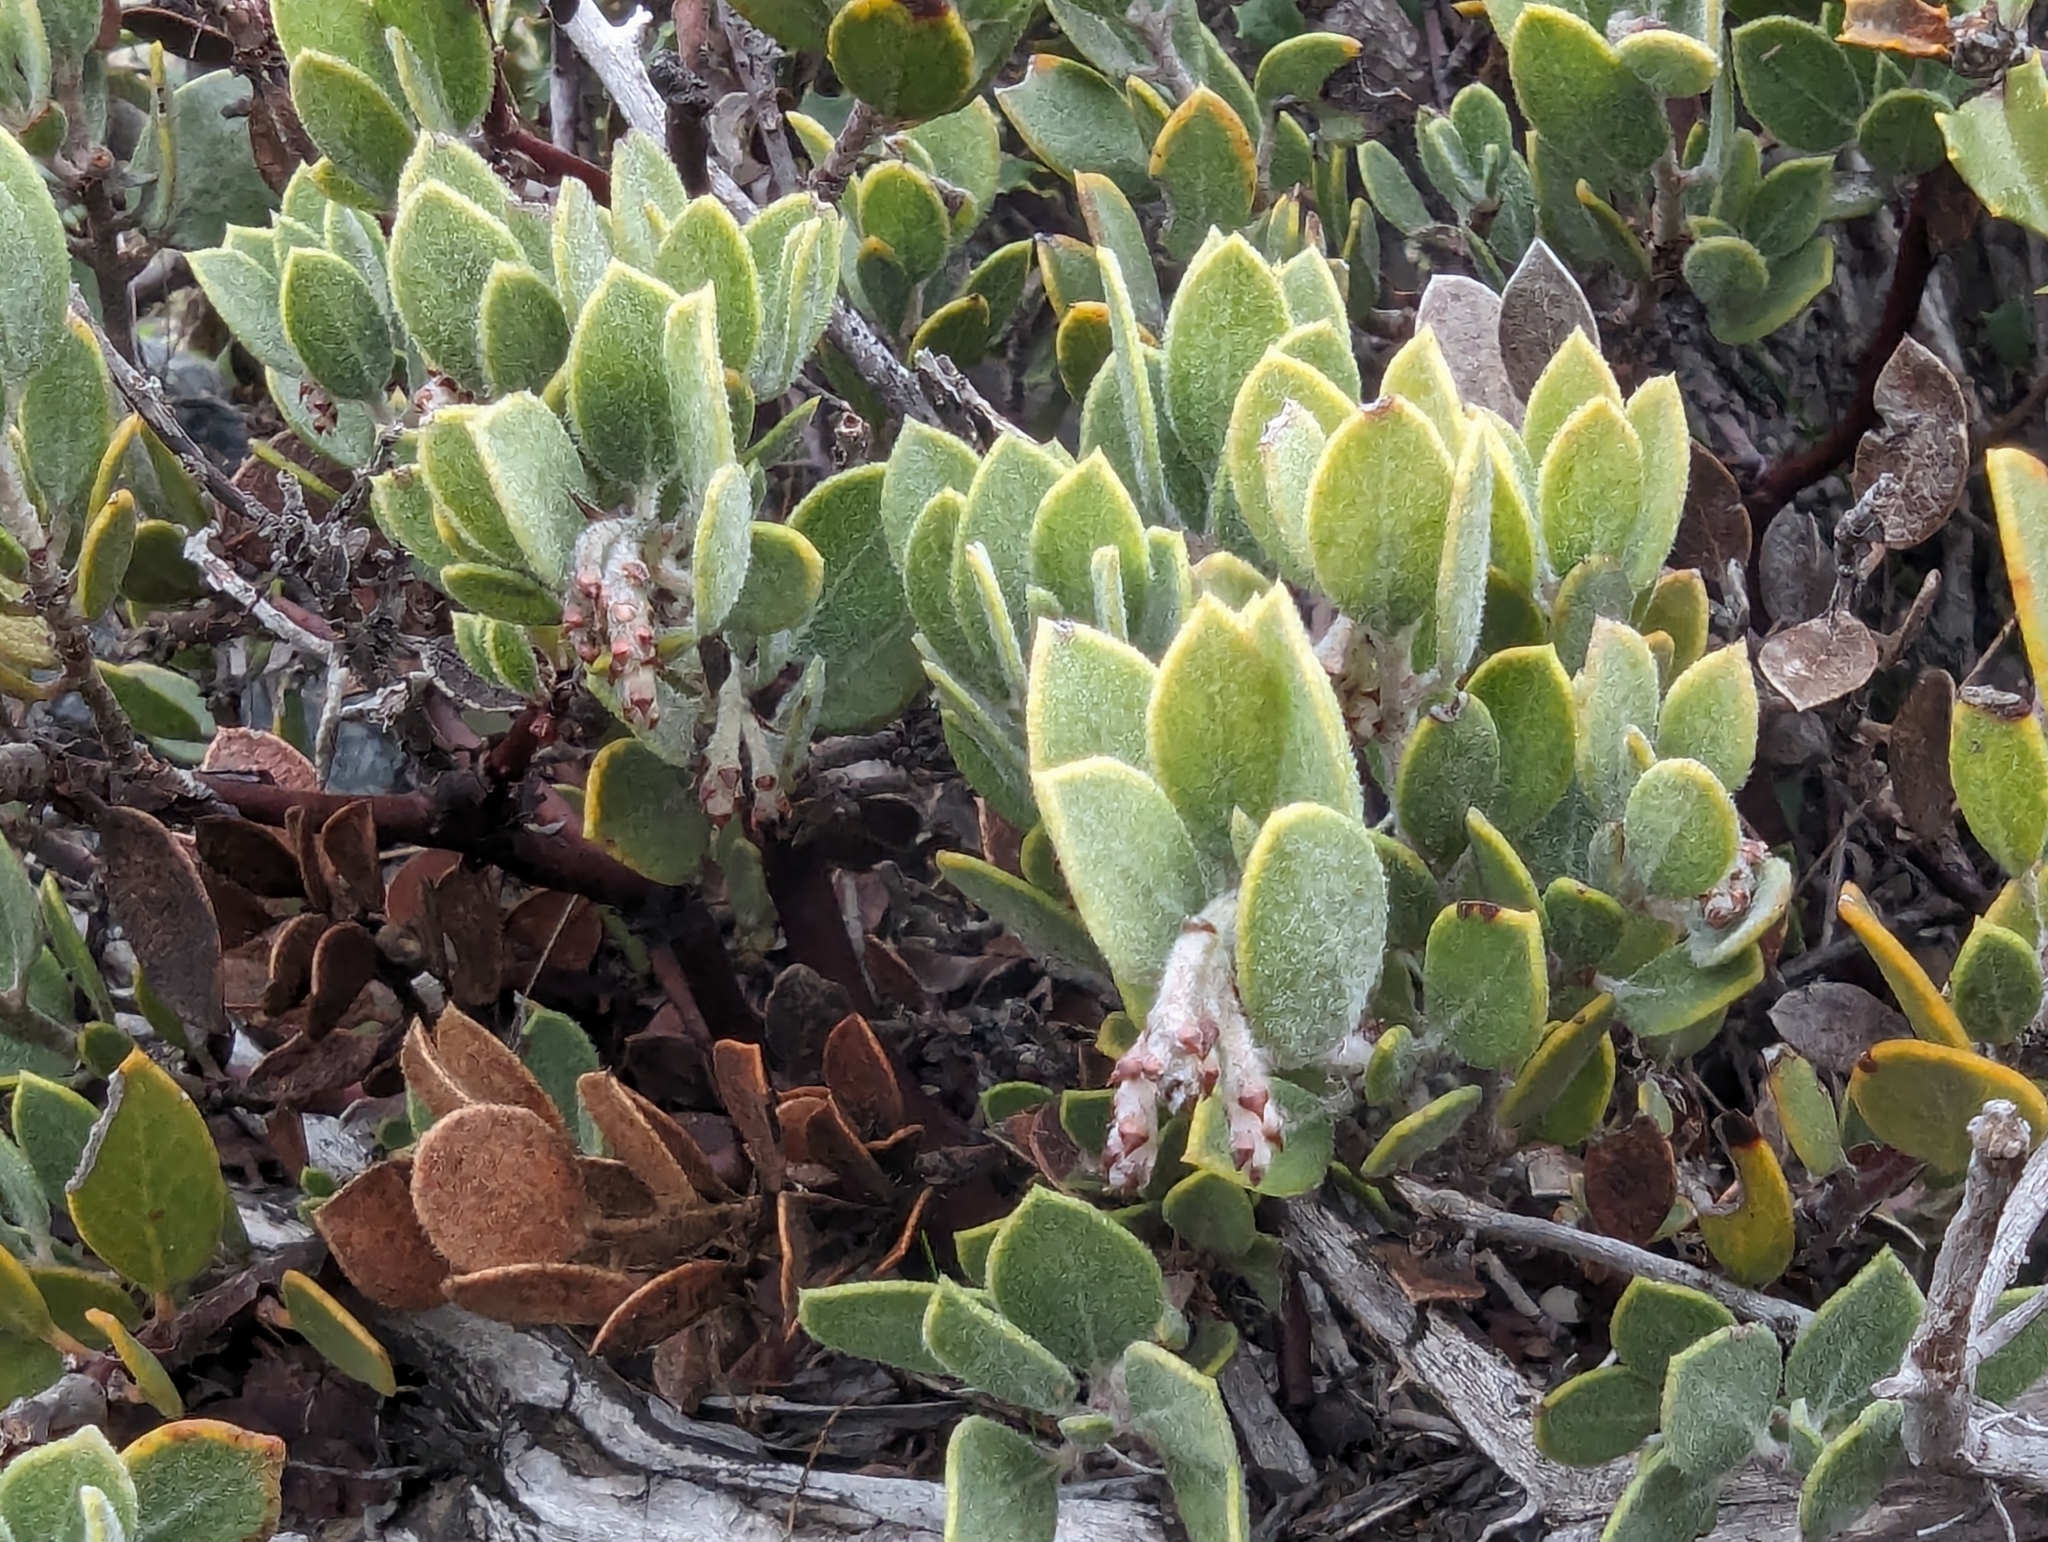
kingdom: Plantae
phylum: Tracheophyta
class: Magnoliopsida
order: Ericales
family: Ericaceae
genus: Arctostaphylos
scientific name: Arctostaphylos montana
